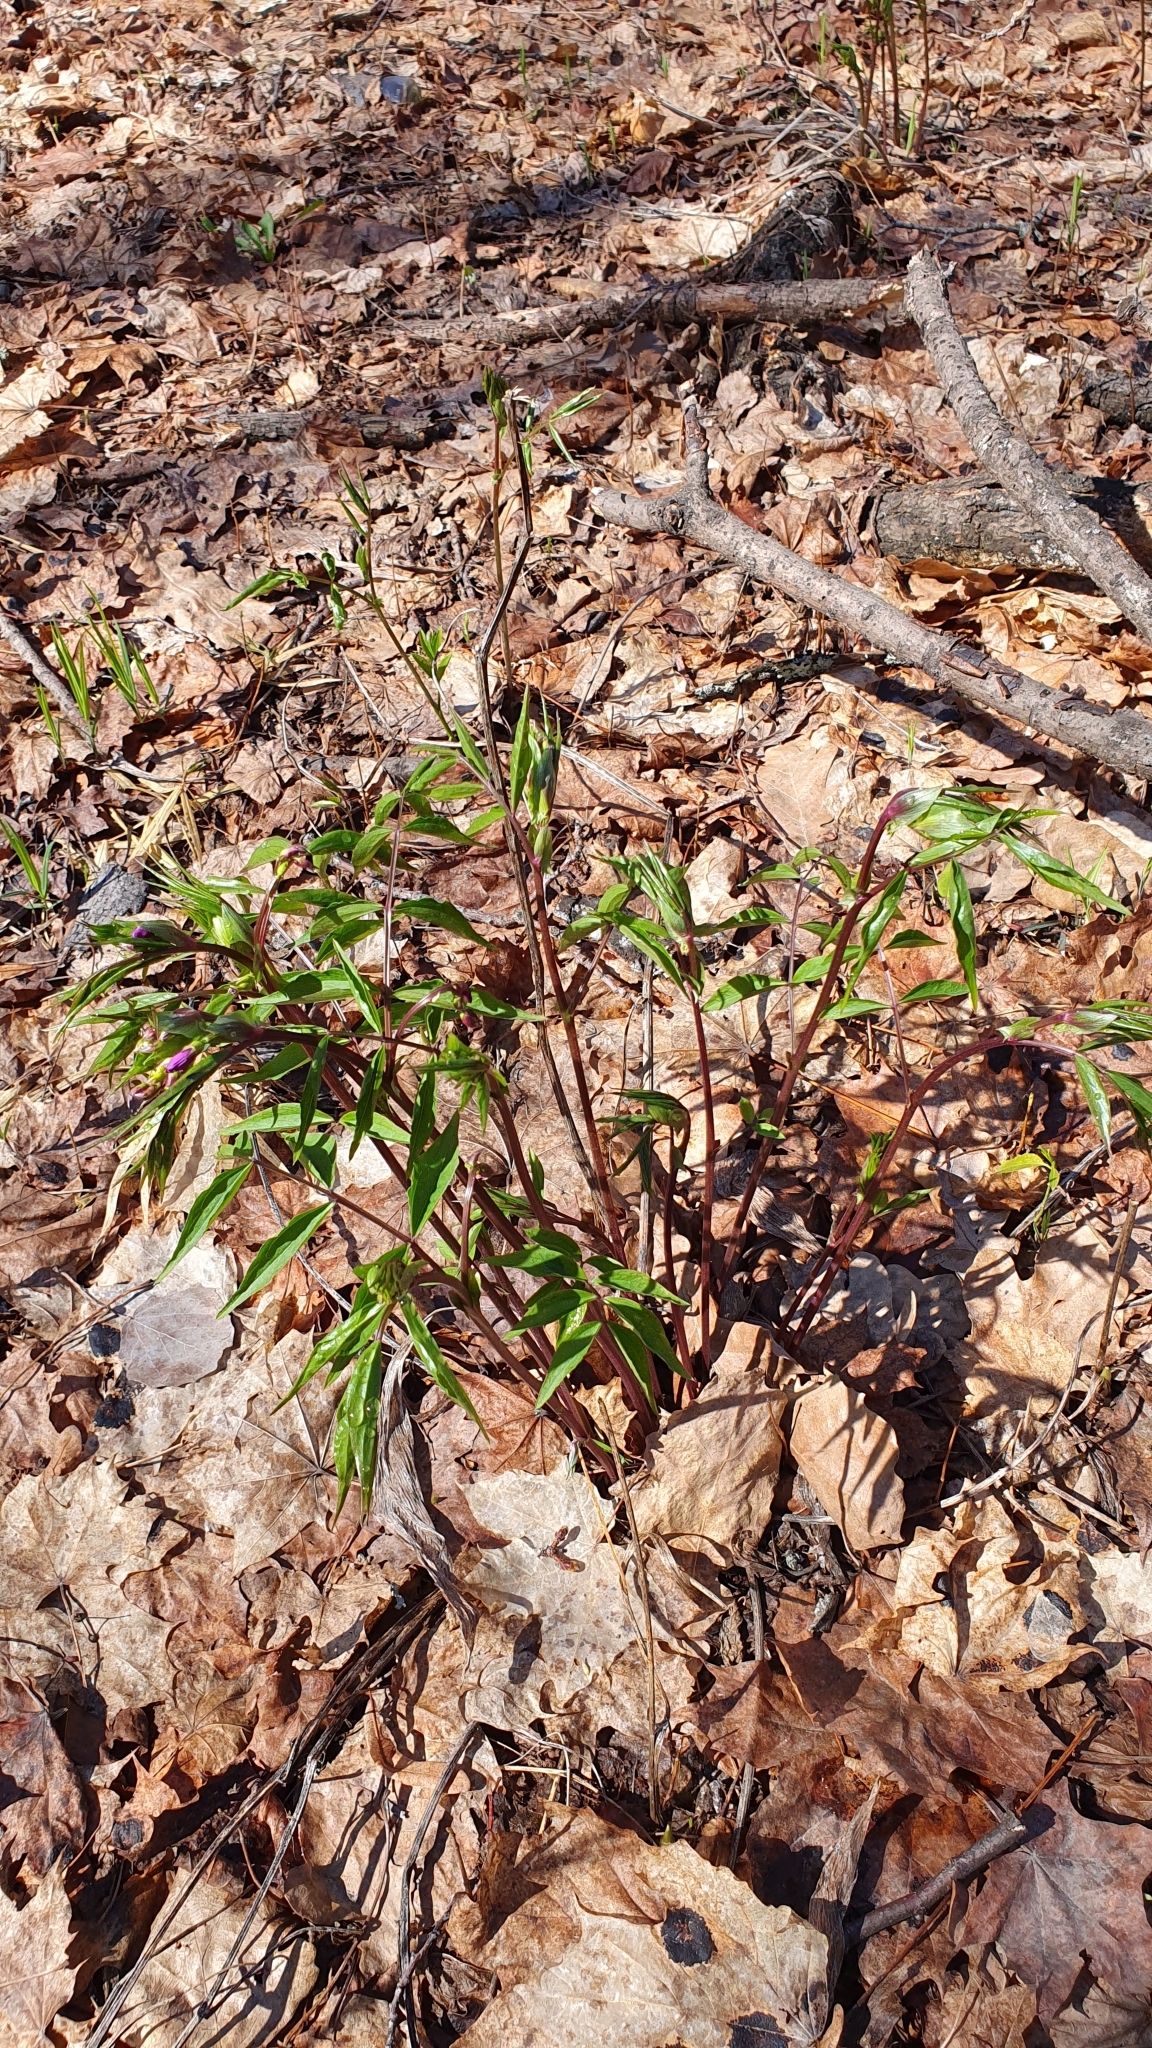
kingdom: Plantae
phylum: Tracheophyta
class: Magnoliopsida
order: Fabales
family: Fabaceae
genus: Lathyrus
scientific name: Lathyrus vernus
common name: Spring pea
